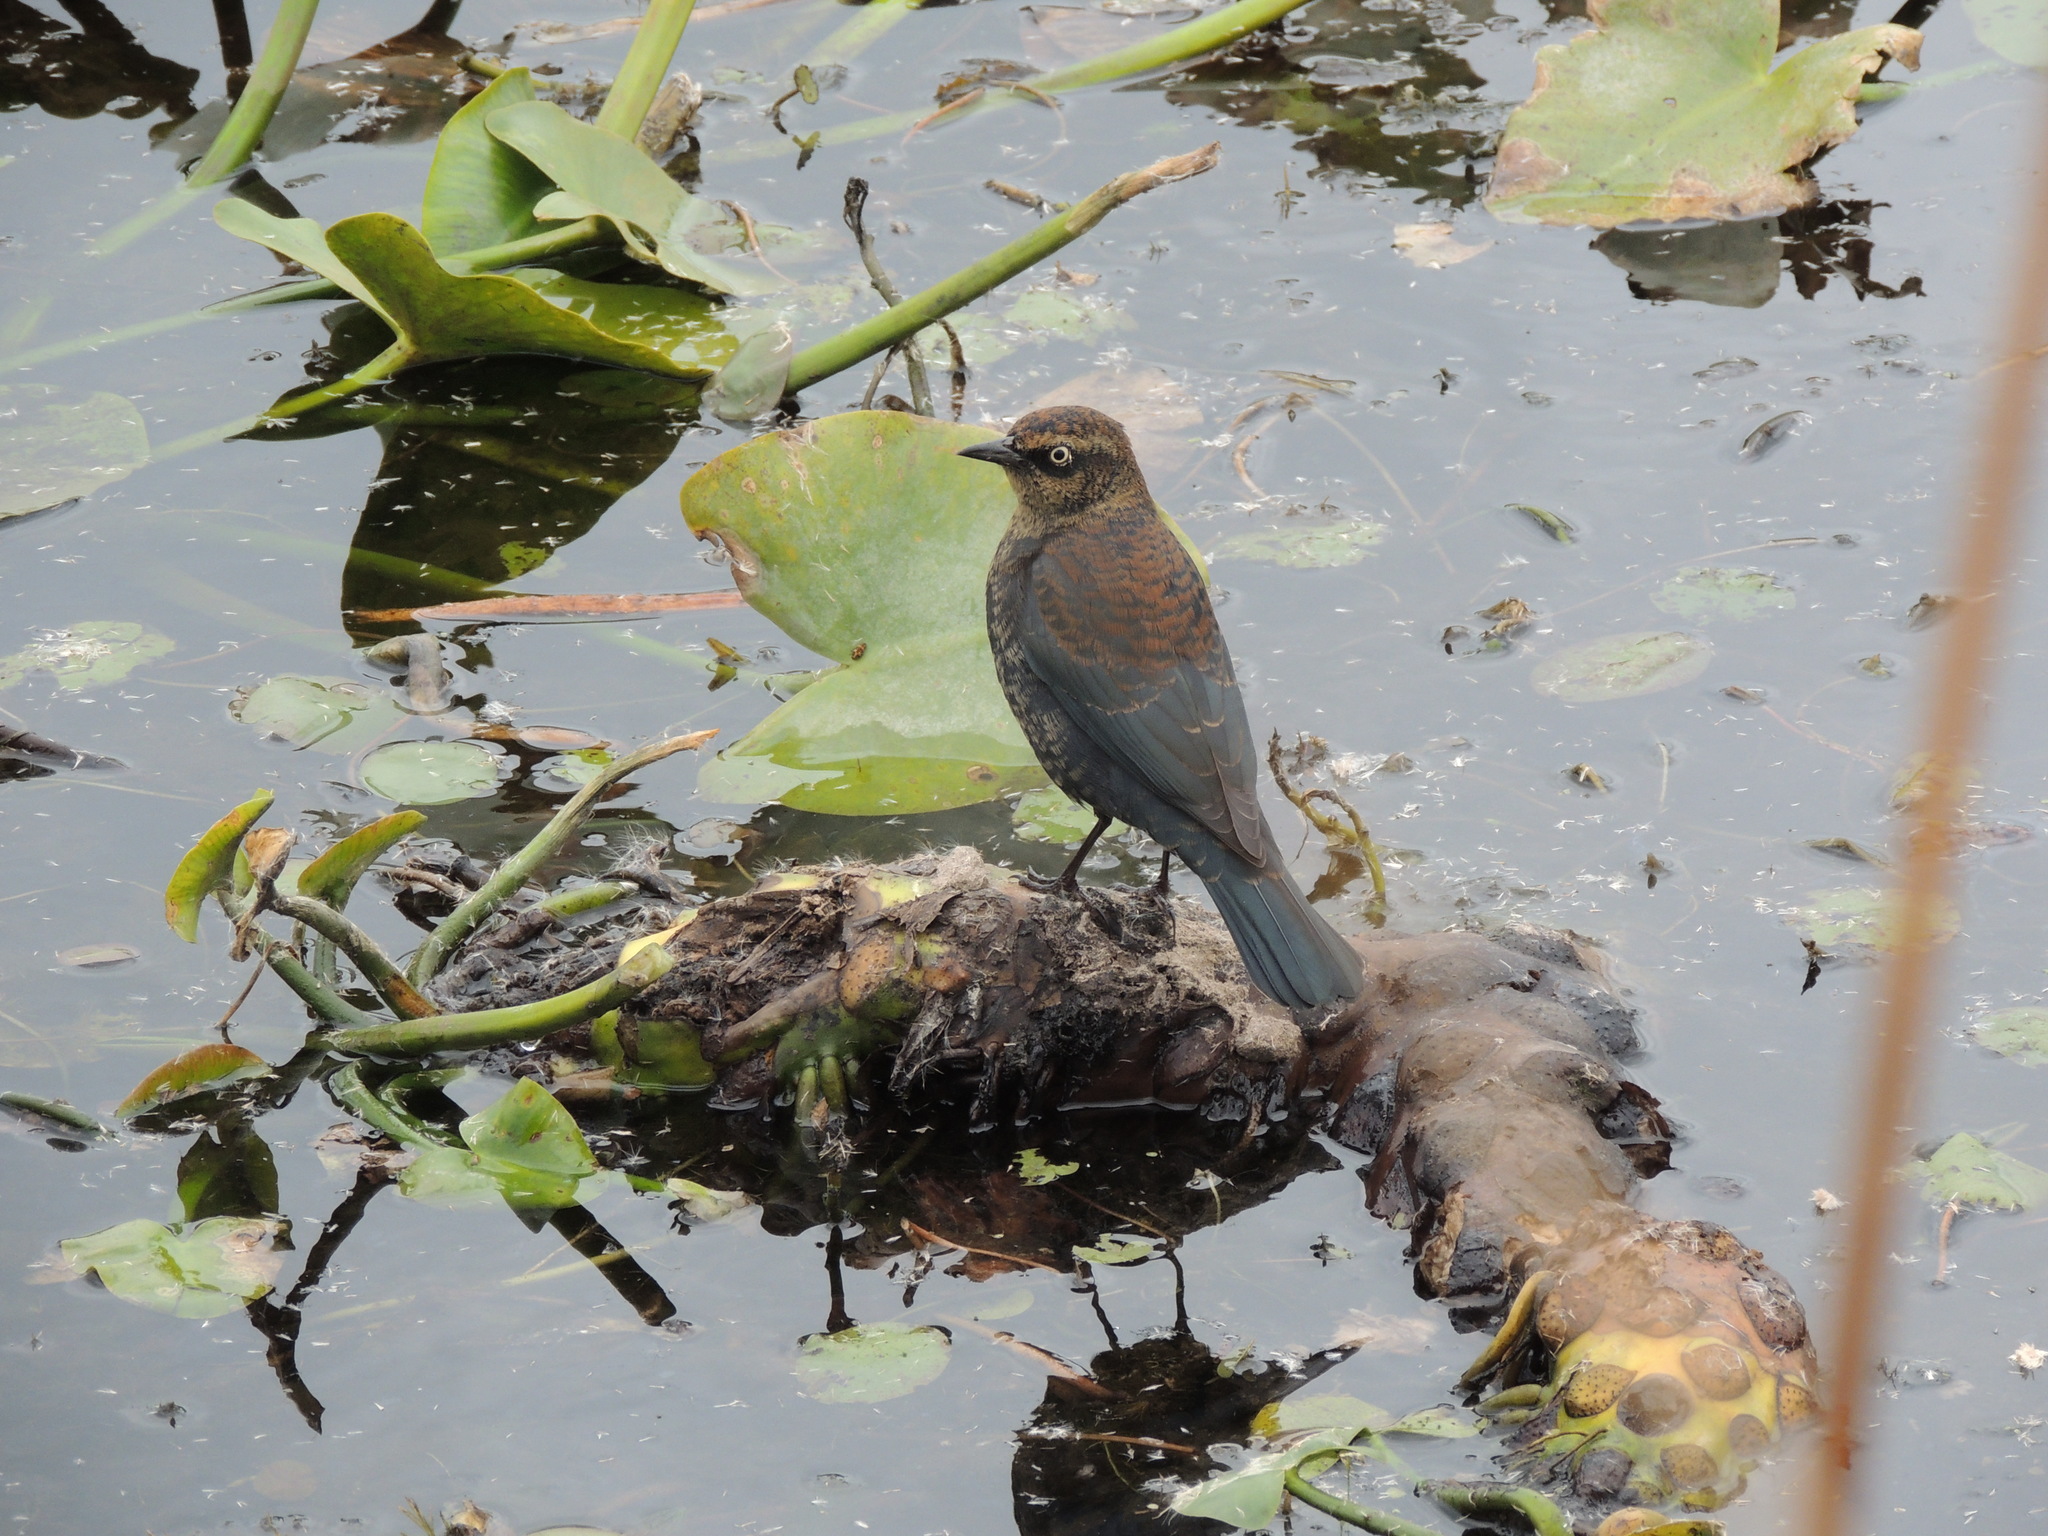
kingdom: Animalia
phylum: Chordata
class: Aves
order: Passeriformes
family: Icteridae
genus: Euphagus
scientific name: Euphagus carolinus
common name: Rusty blackbird
